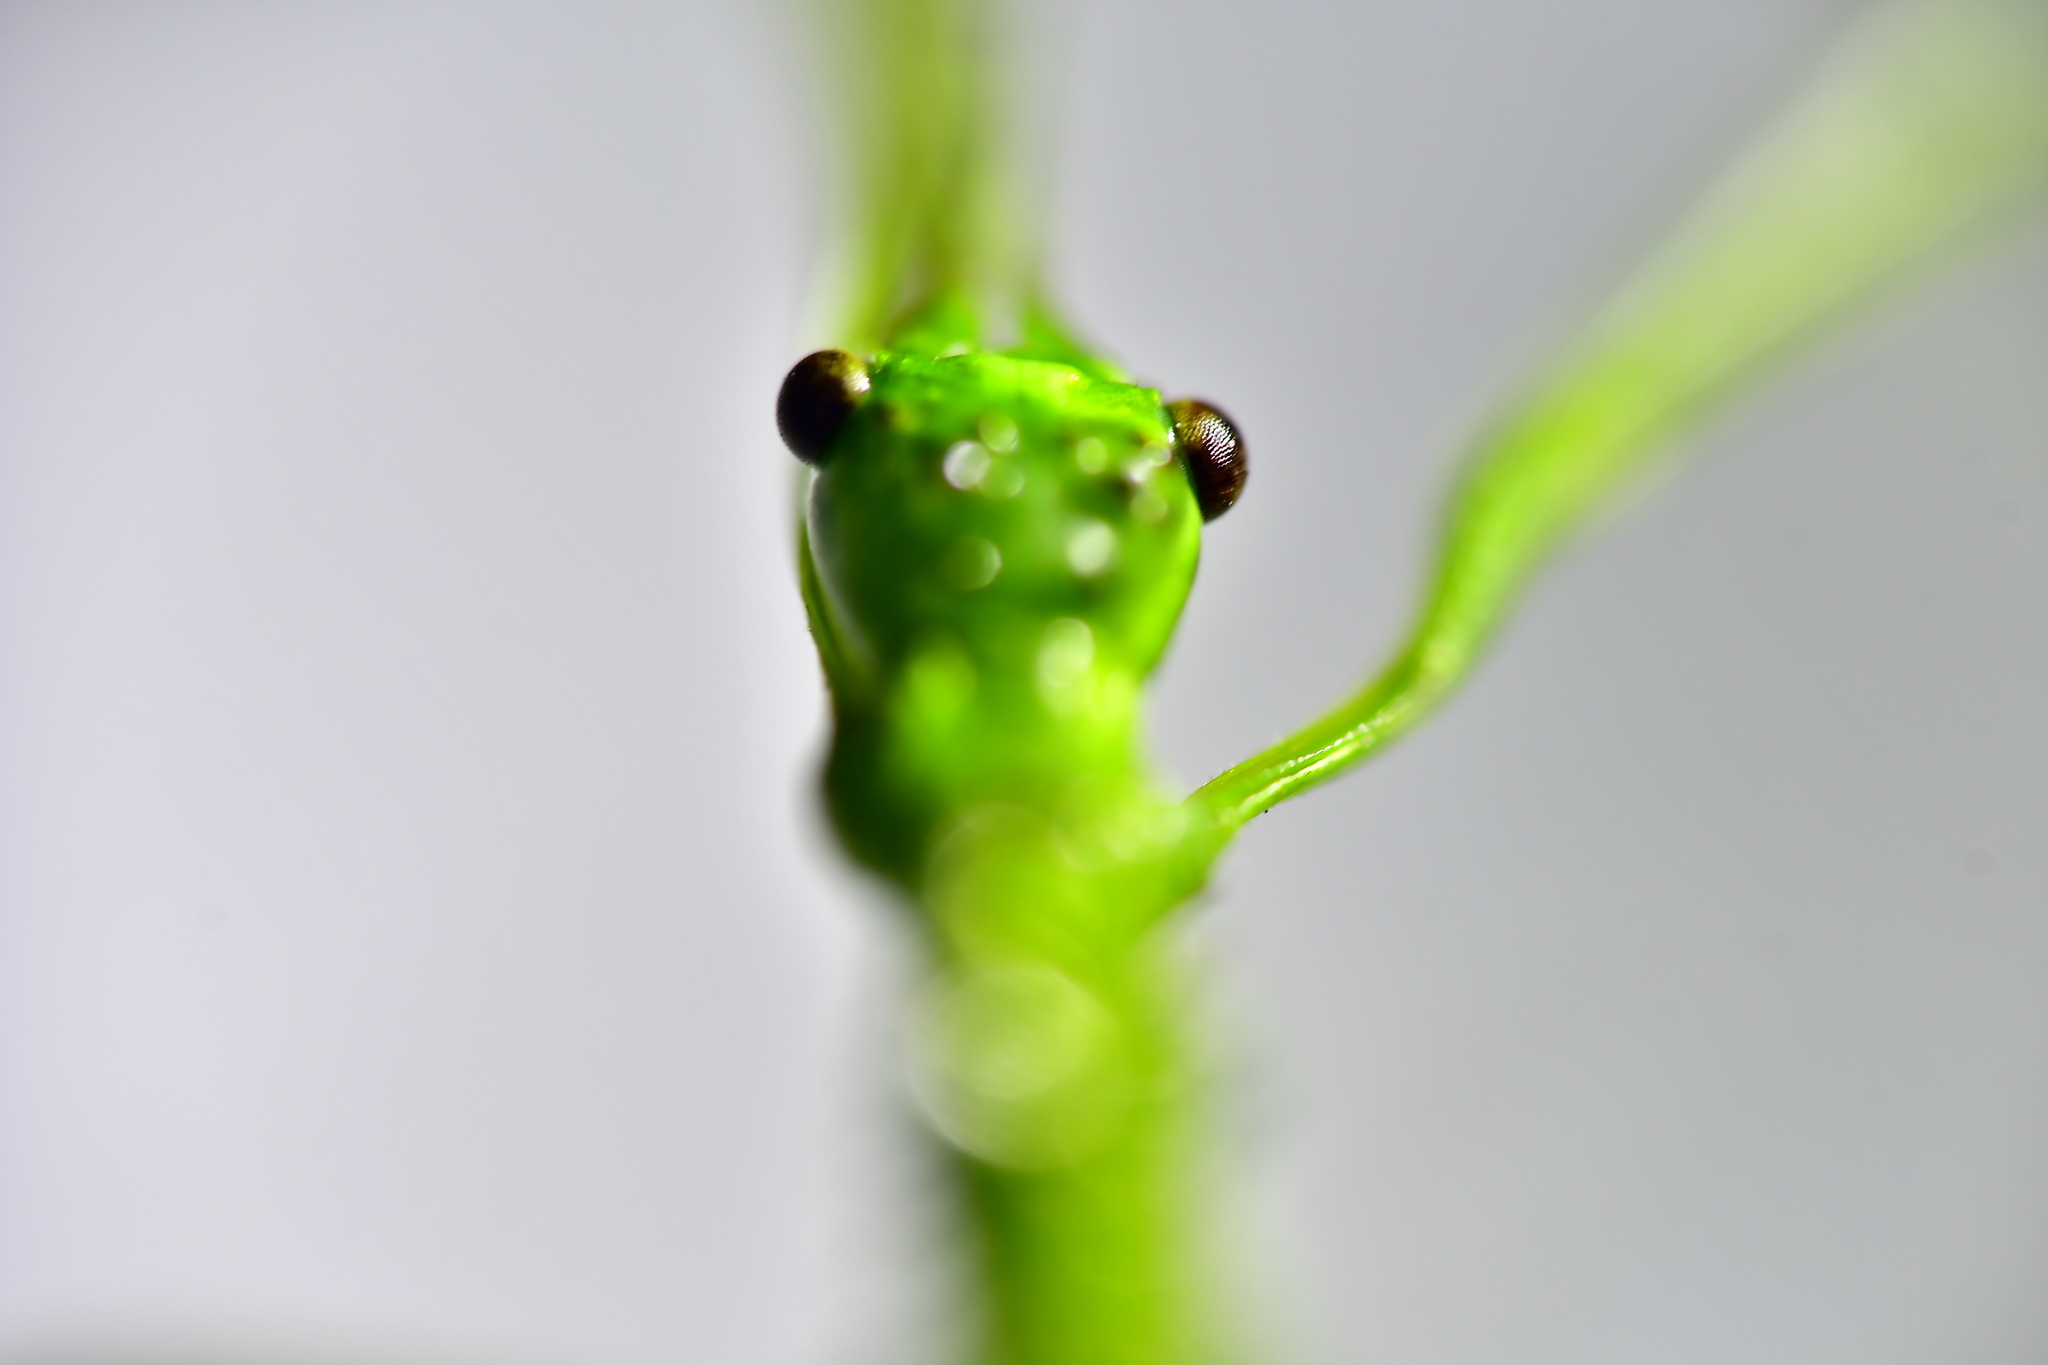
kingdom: Animalia
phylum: Arthropoda
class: Insecta
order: Phasmida
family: Phasmatidae
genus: Acanthoxyla
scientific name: Acanthoxyla prasina
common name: Black-spined stick insect
